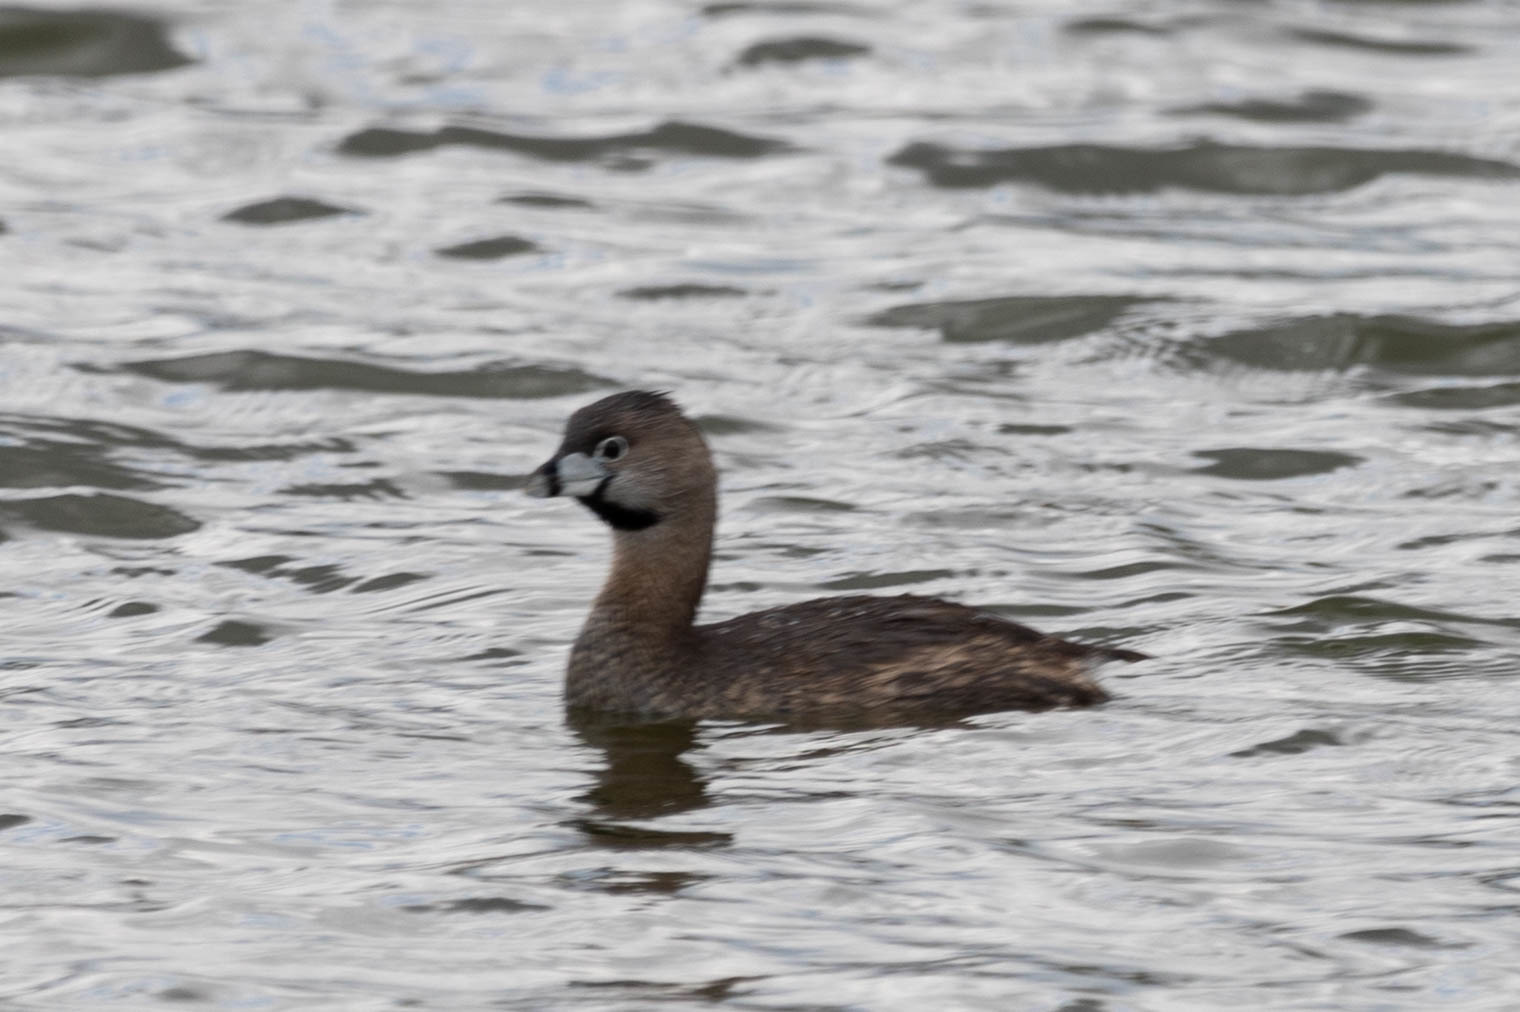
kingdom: Animalia
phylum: Chordata
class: Aves
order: Podicipediformes
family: Podicipedidae
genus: Podilymbus
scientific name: Podilymbus podiceps
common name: Pied-billed grebe
